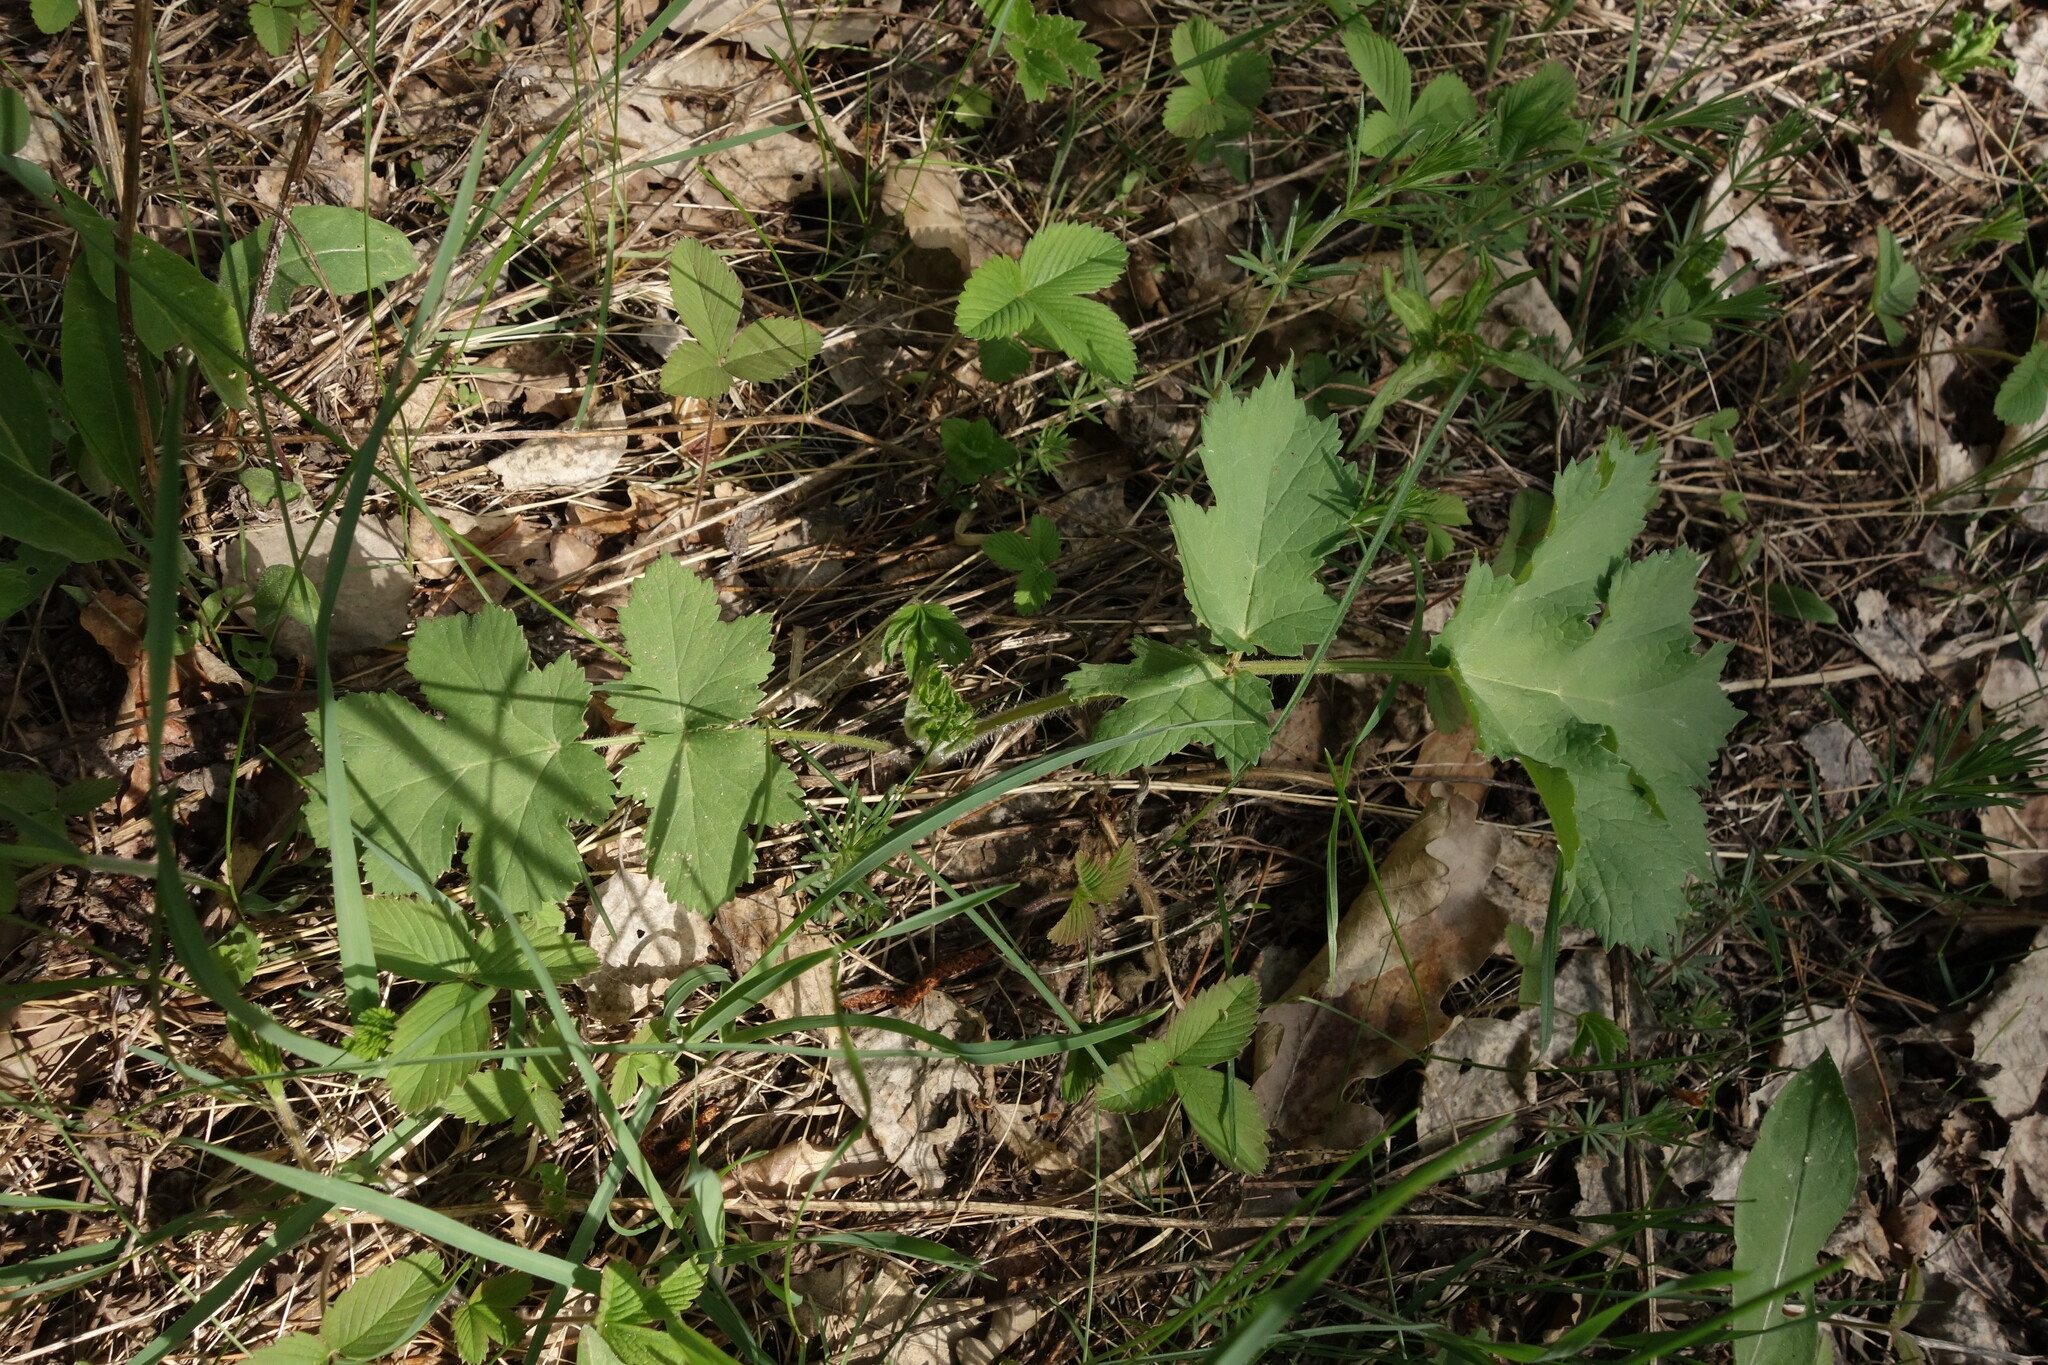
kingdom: Plantae
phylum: Tracheophyta
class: Magnoliopsida
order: Apiales
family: Apiaceae
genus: Heracleum
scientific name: Heracleum sphondylium
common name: Hogweed
